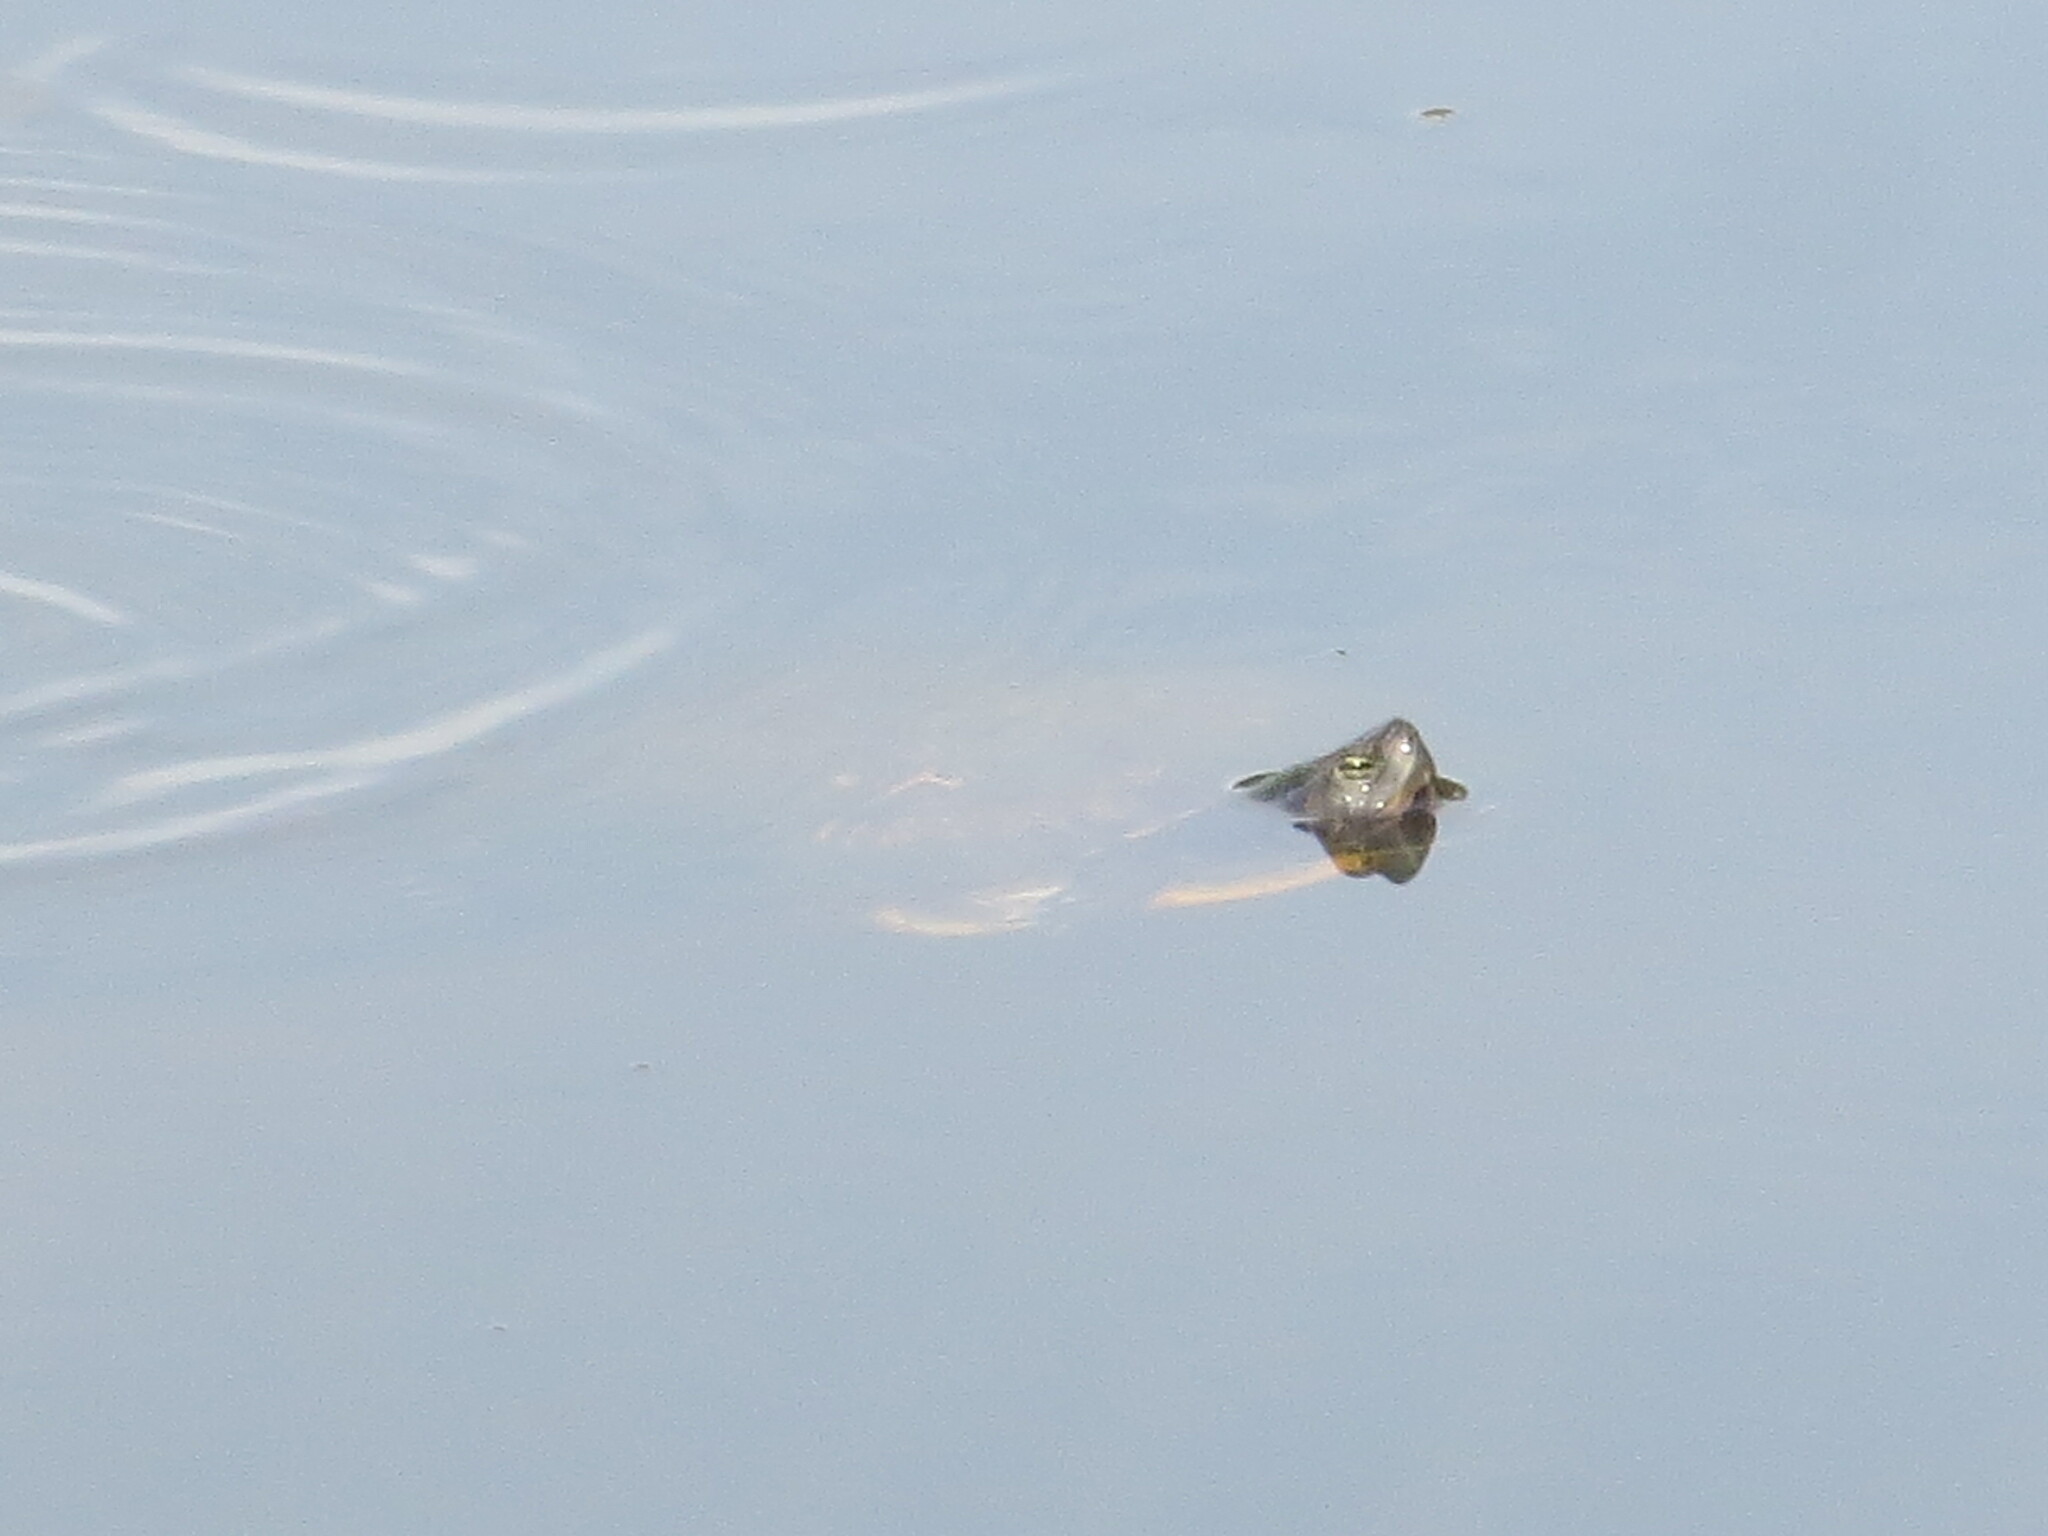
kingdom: Animalia
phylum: Chordata
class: Testudines
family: Emydidae
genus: Trachemys
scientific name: Trachemys scripta
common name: Slider
